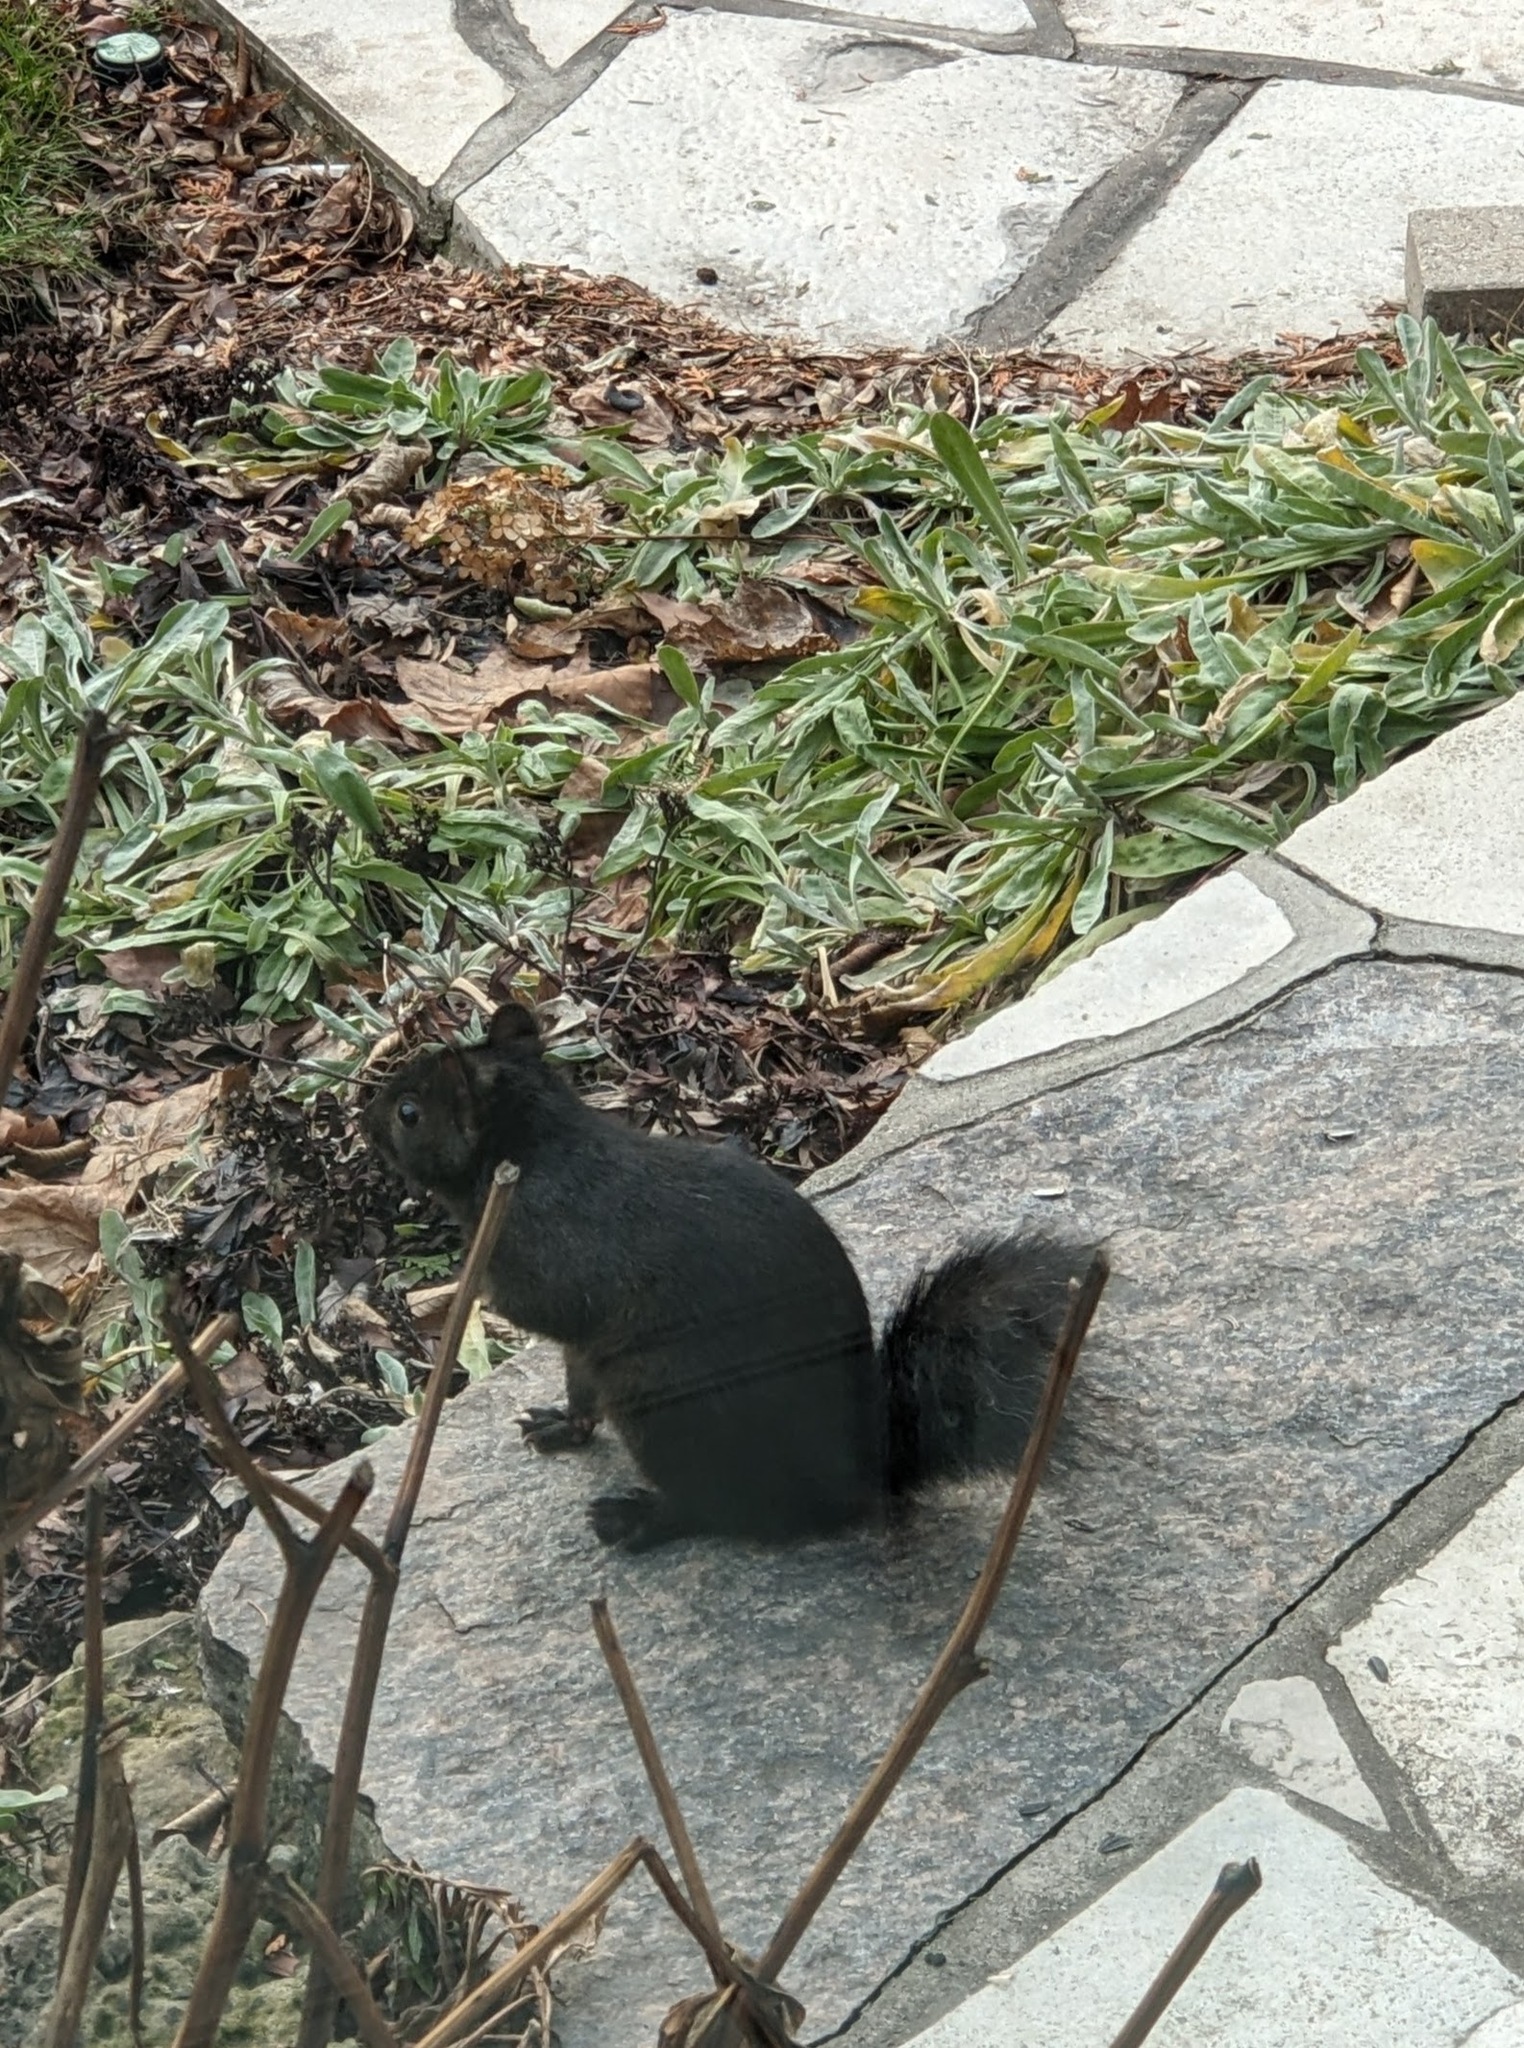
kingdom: Animalia
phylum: Chordata
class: Mammalia
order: Rodentia
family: Sciuridae
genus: Sciurus
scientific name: Sciurus carolinensis
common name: Eastern gray squirrel
